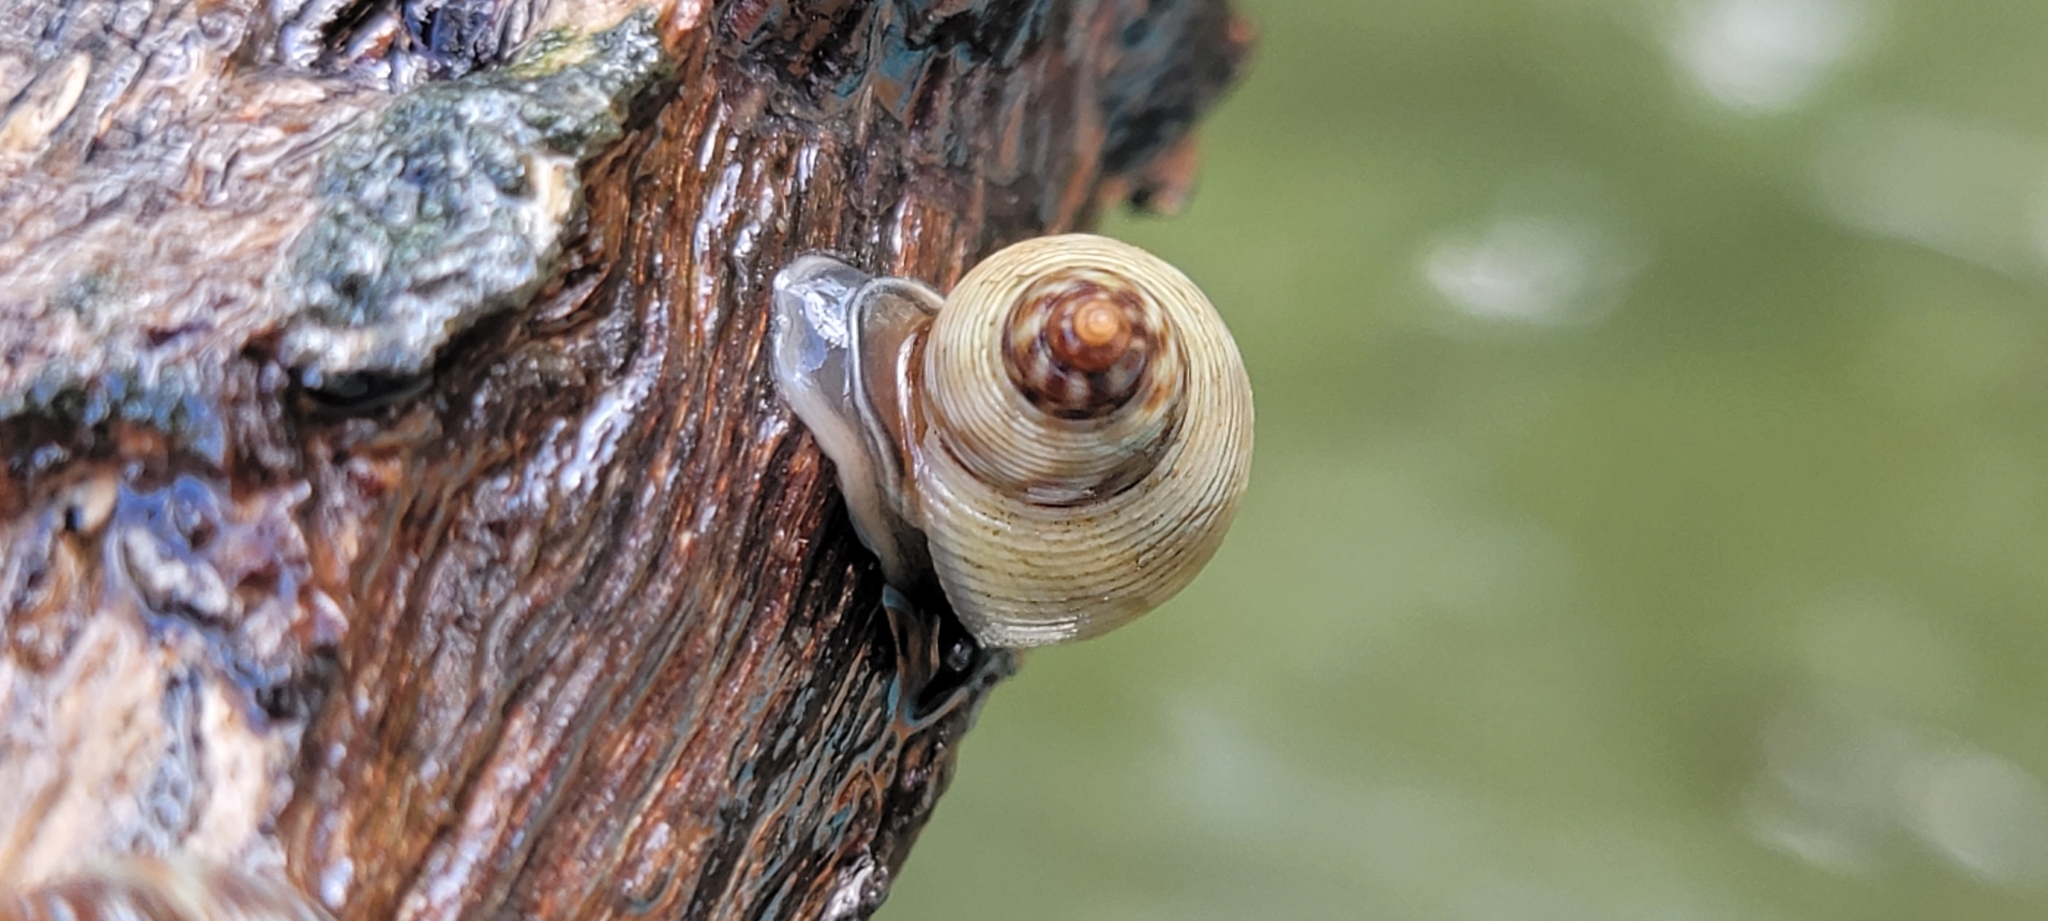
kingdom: Animalia
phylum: Mollusca
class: Gastropoda
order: Littorinimorpha
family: Littorinidae
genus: Littoraria
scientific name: Littoraria nebulosa
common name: Cloudy periwinkle
